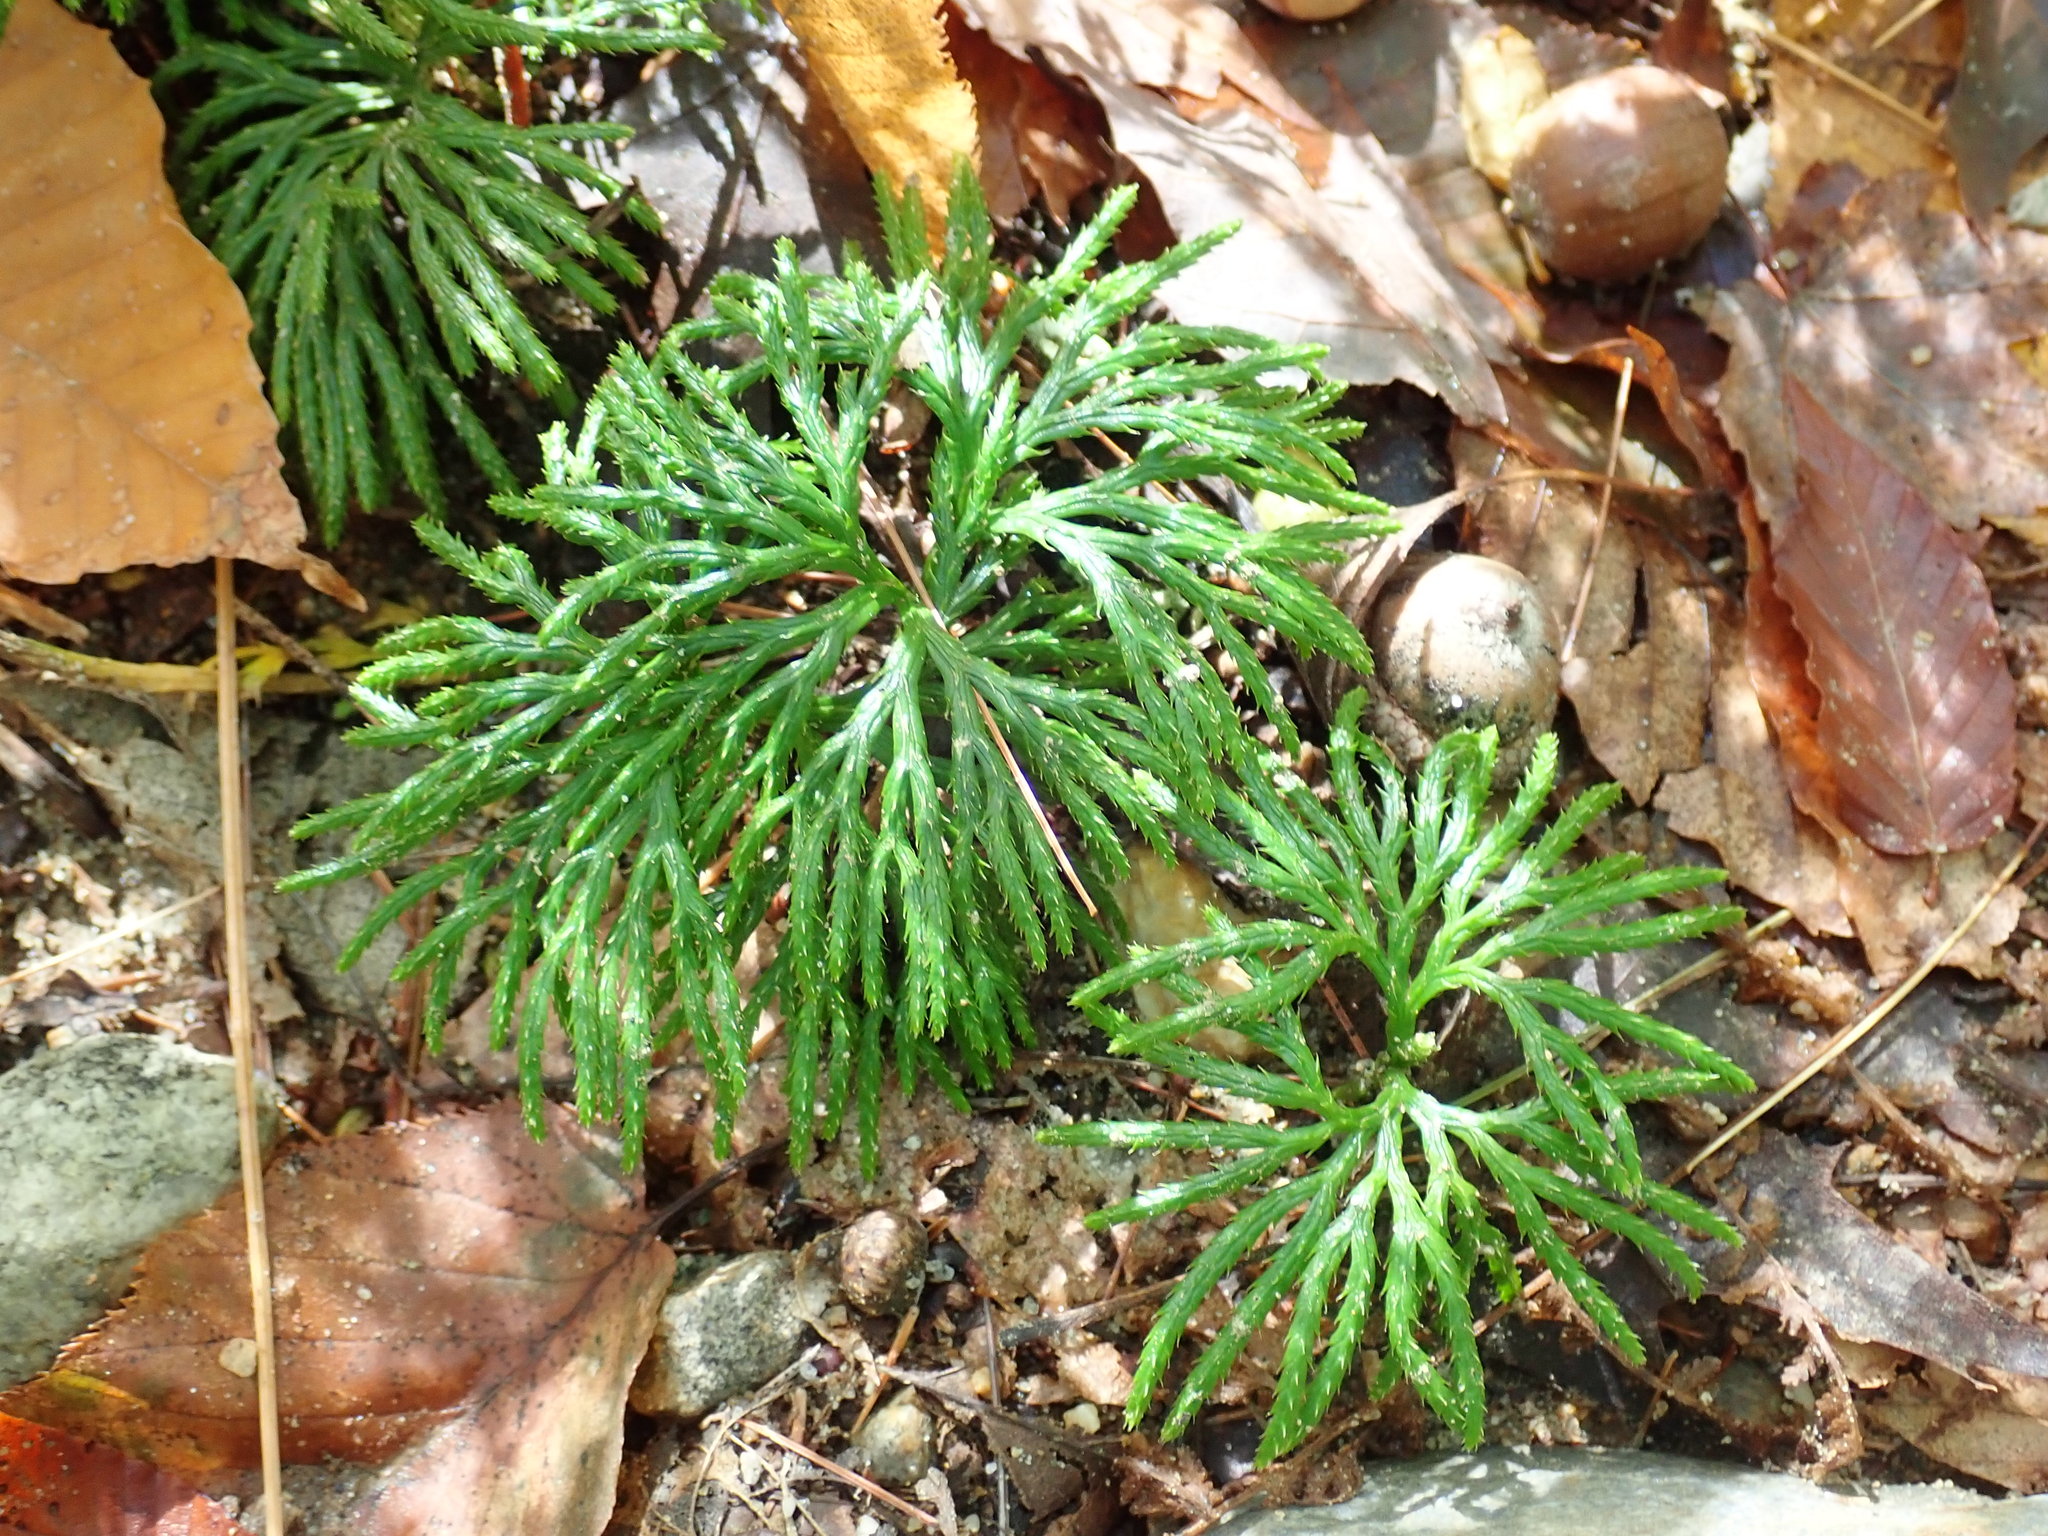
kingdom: Plantae
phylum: Tracheophyta
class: Lycopodiopsida
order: Lycopodiales
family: Lycopodiaceae
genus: Diphasiastrum
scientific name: Diphasiastrum digitatum
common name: Southern running-pine
